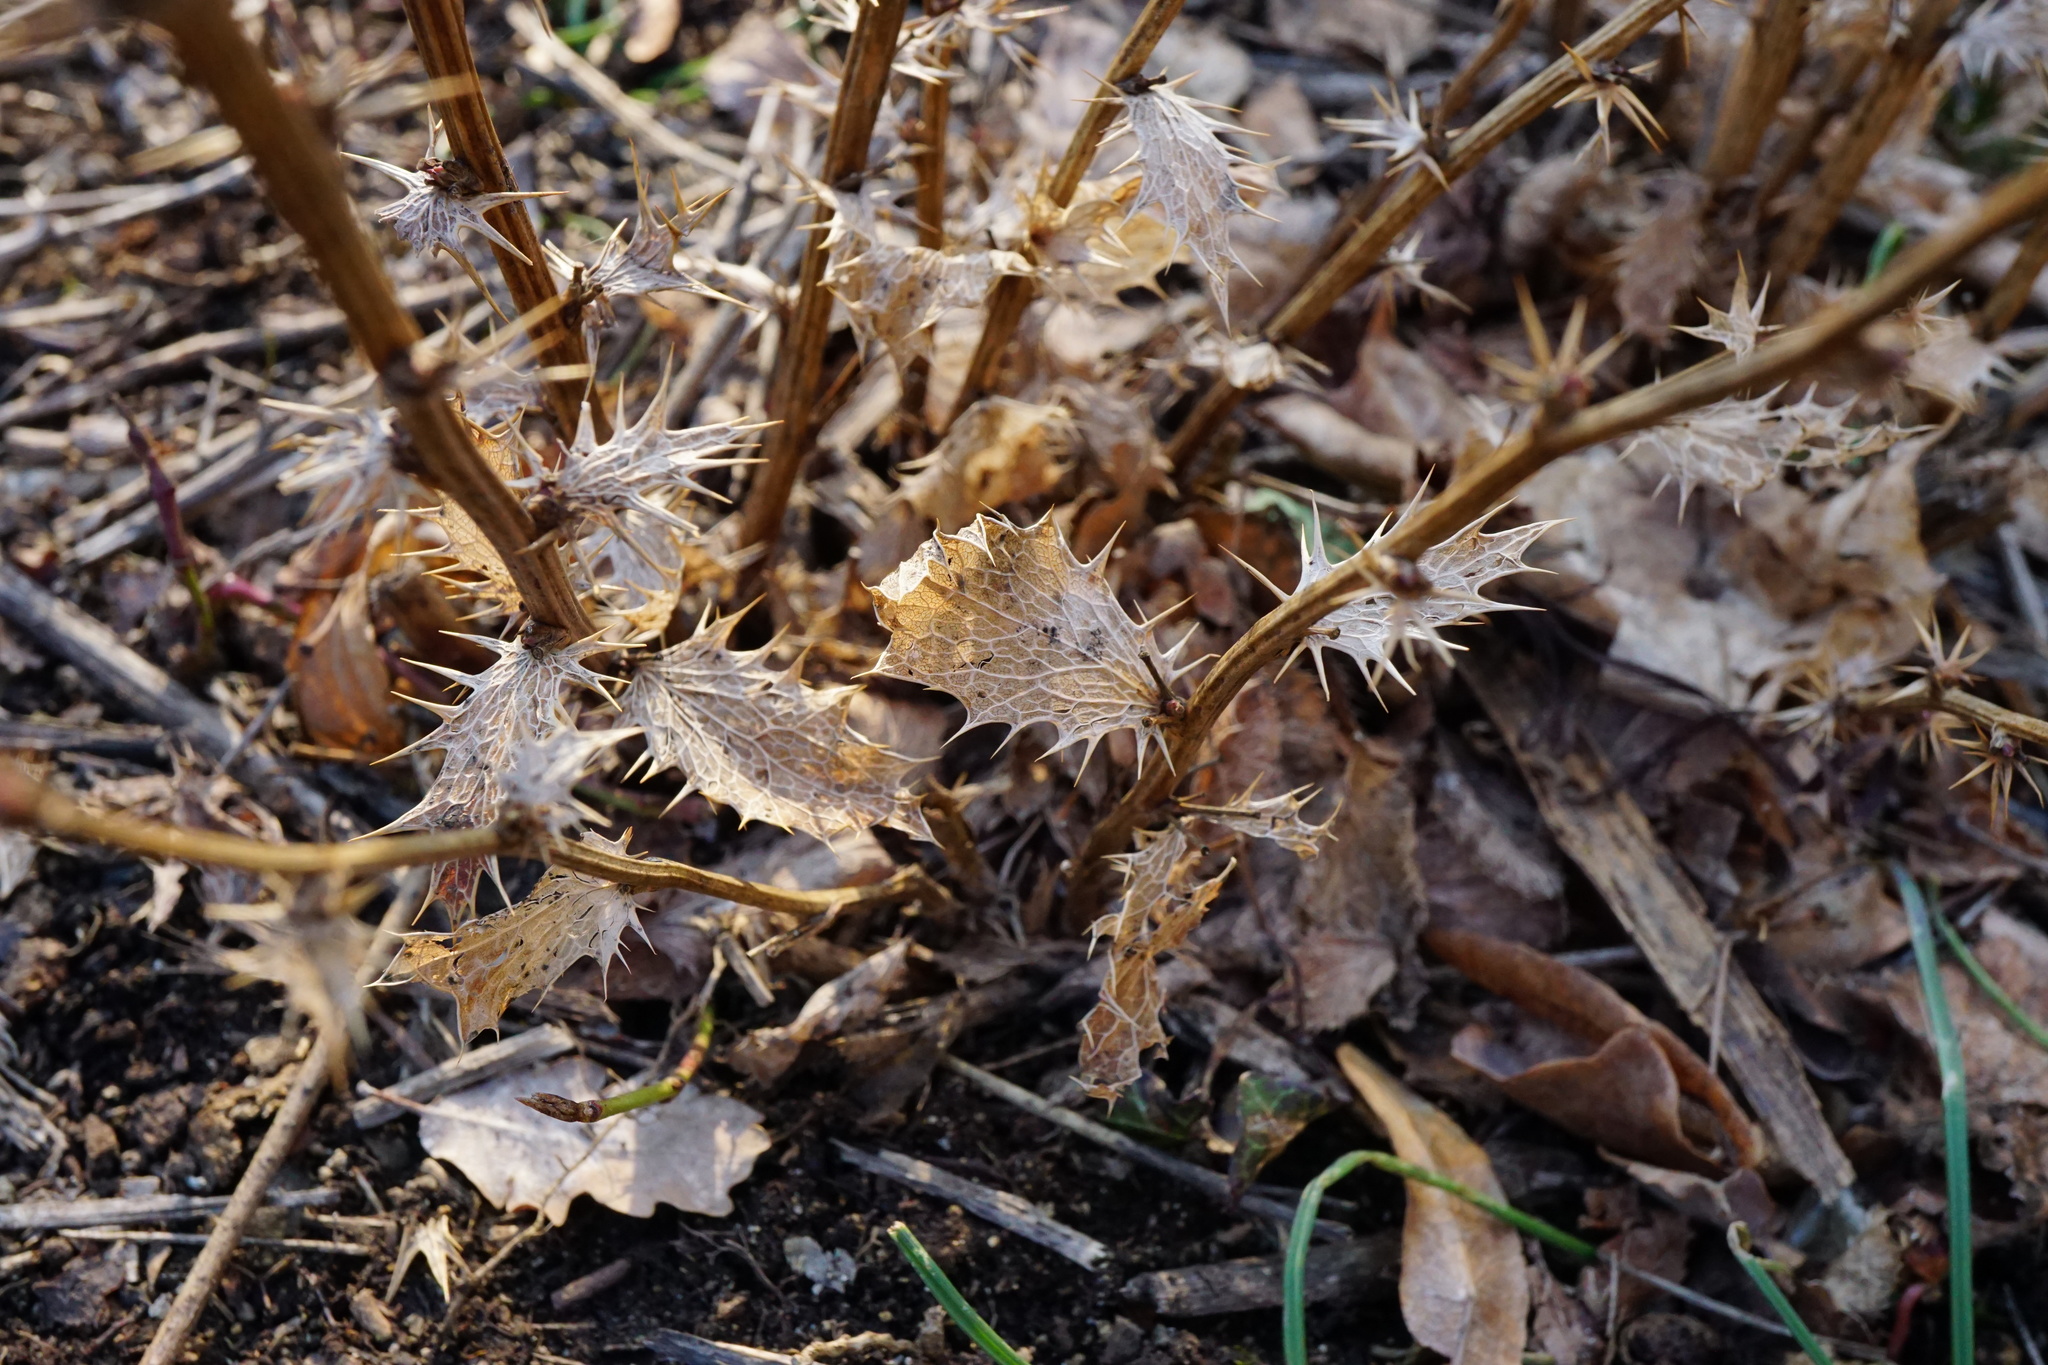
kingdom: Plantae
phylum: Tracheophyta
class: Magnoliopsida
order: Ranunculales
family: Berberidaceae
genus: Berberis
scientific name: Berberis vulgaris
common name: Barberry
